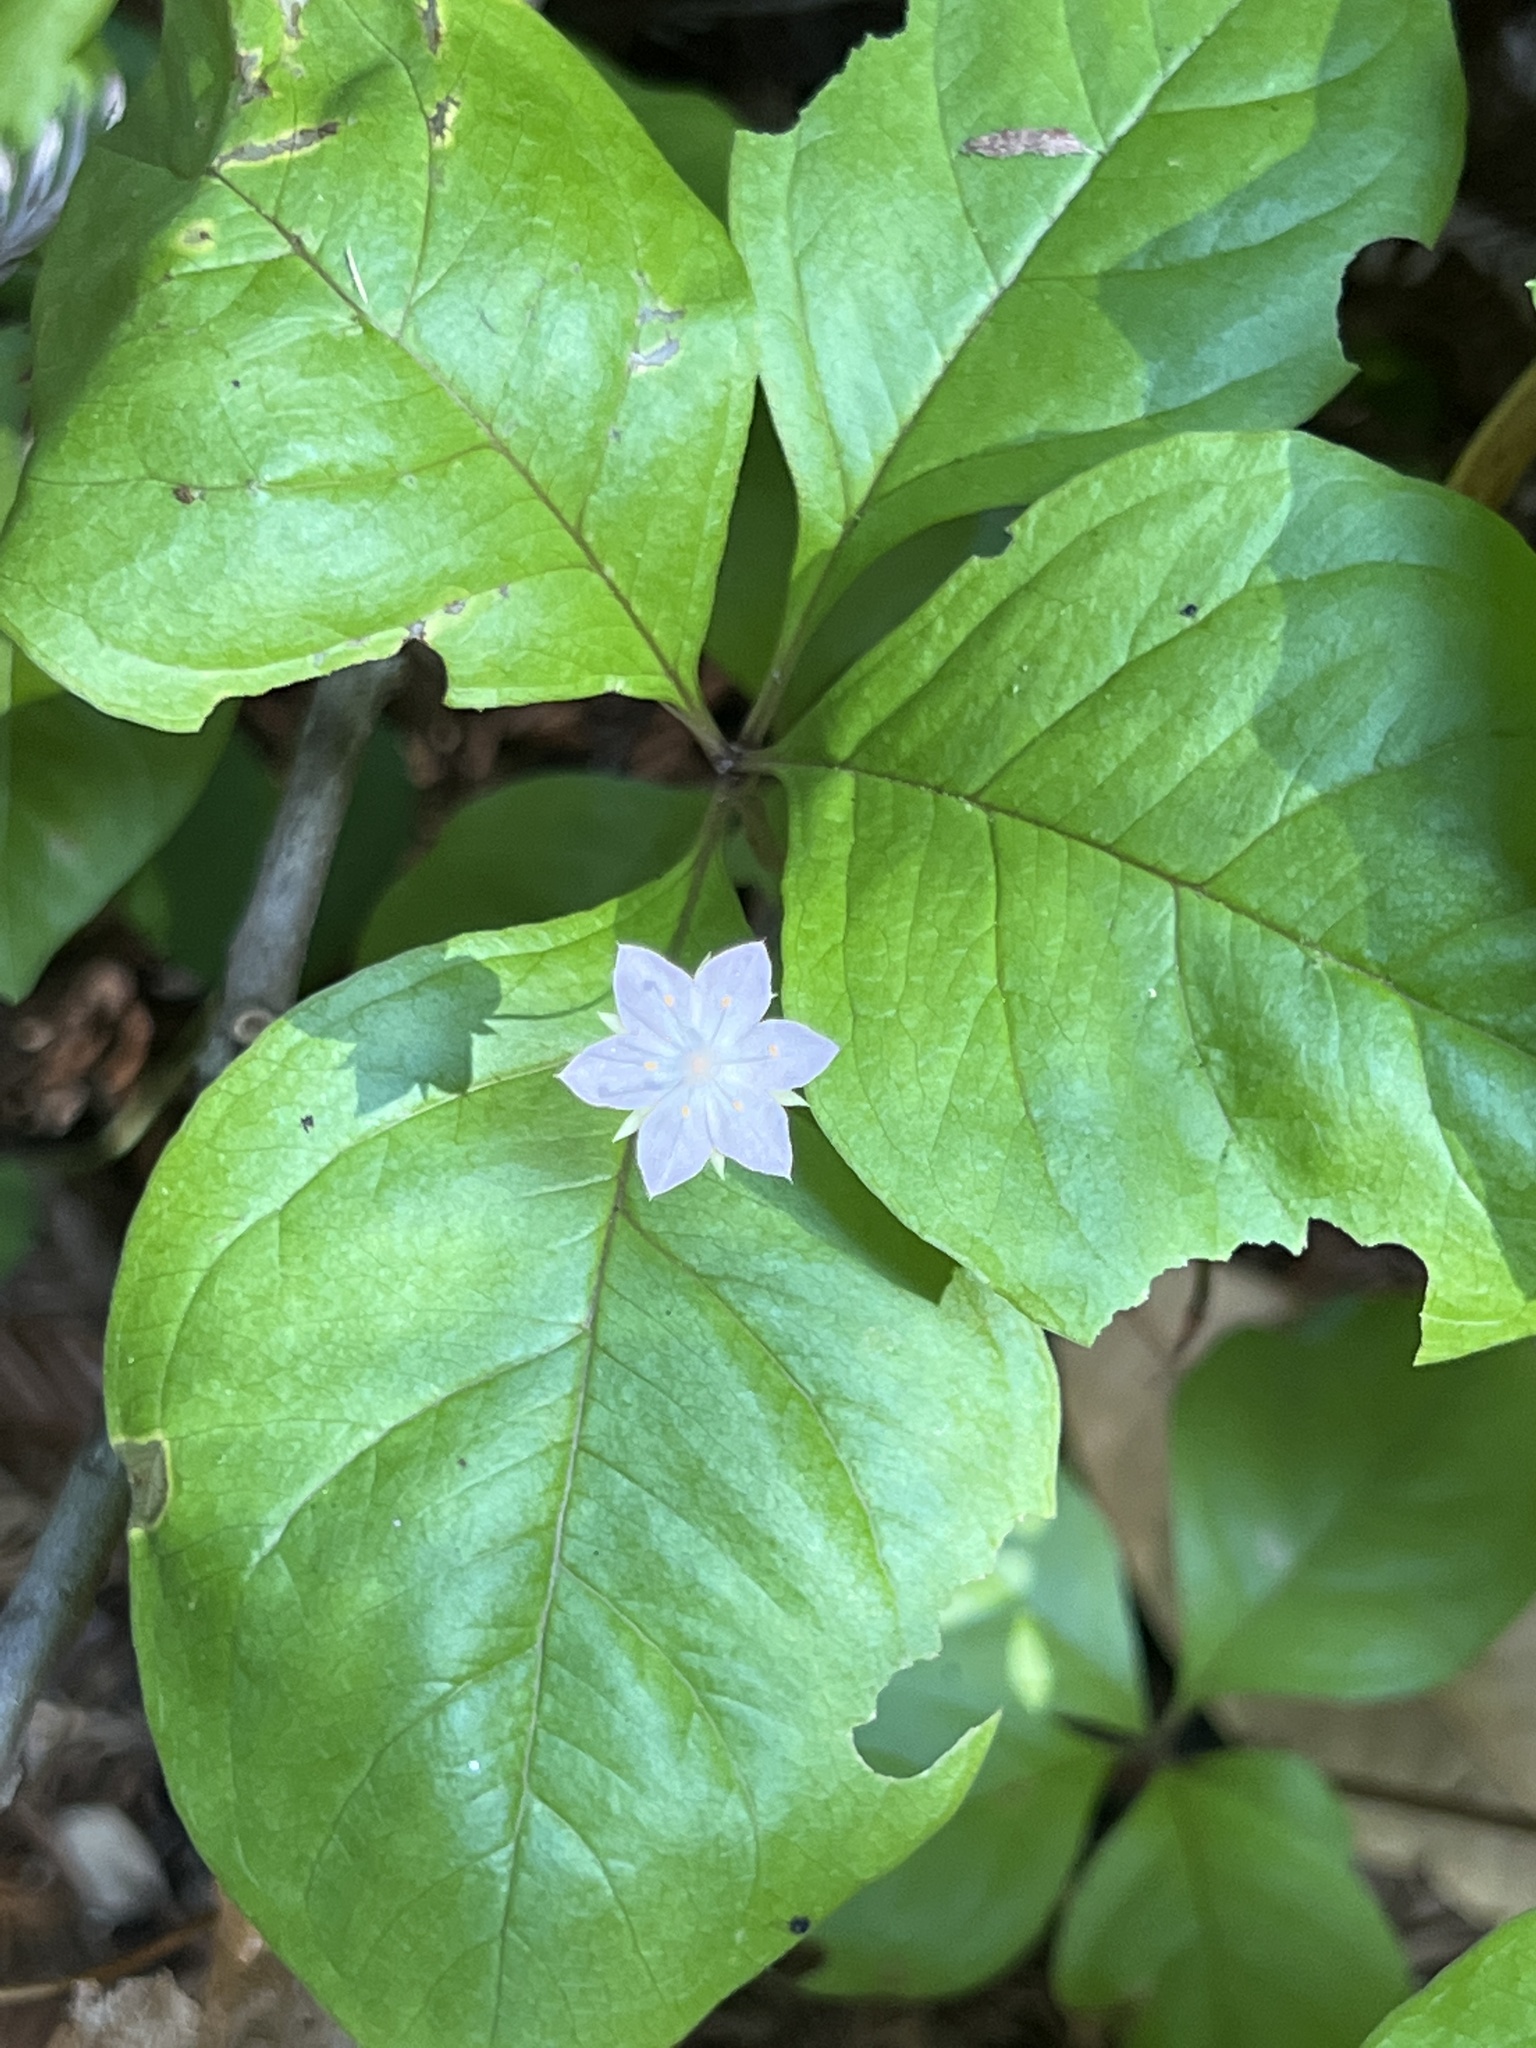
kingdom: Plantae
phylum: Tracheophyta
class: Magnoliopsida
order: Ericales
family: Primulaceae
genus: Lysimachia
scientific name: Lysimachia latifolia
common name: Pacific starflower
